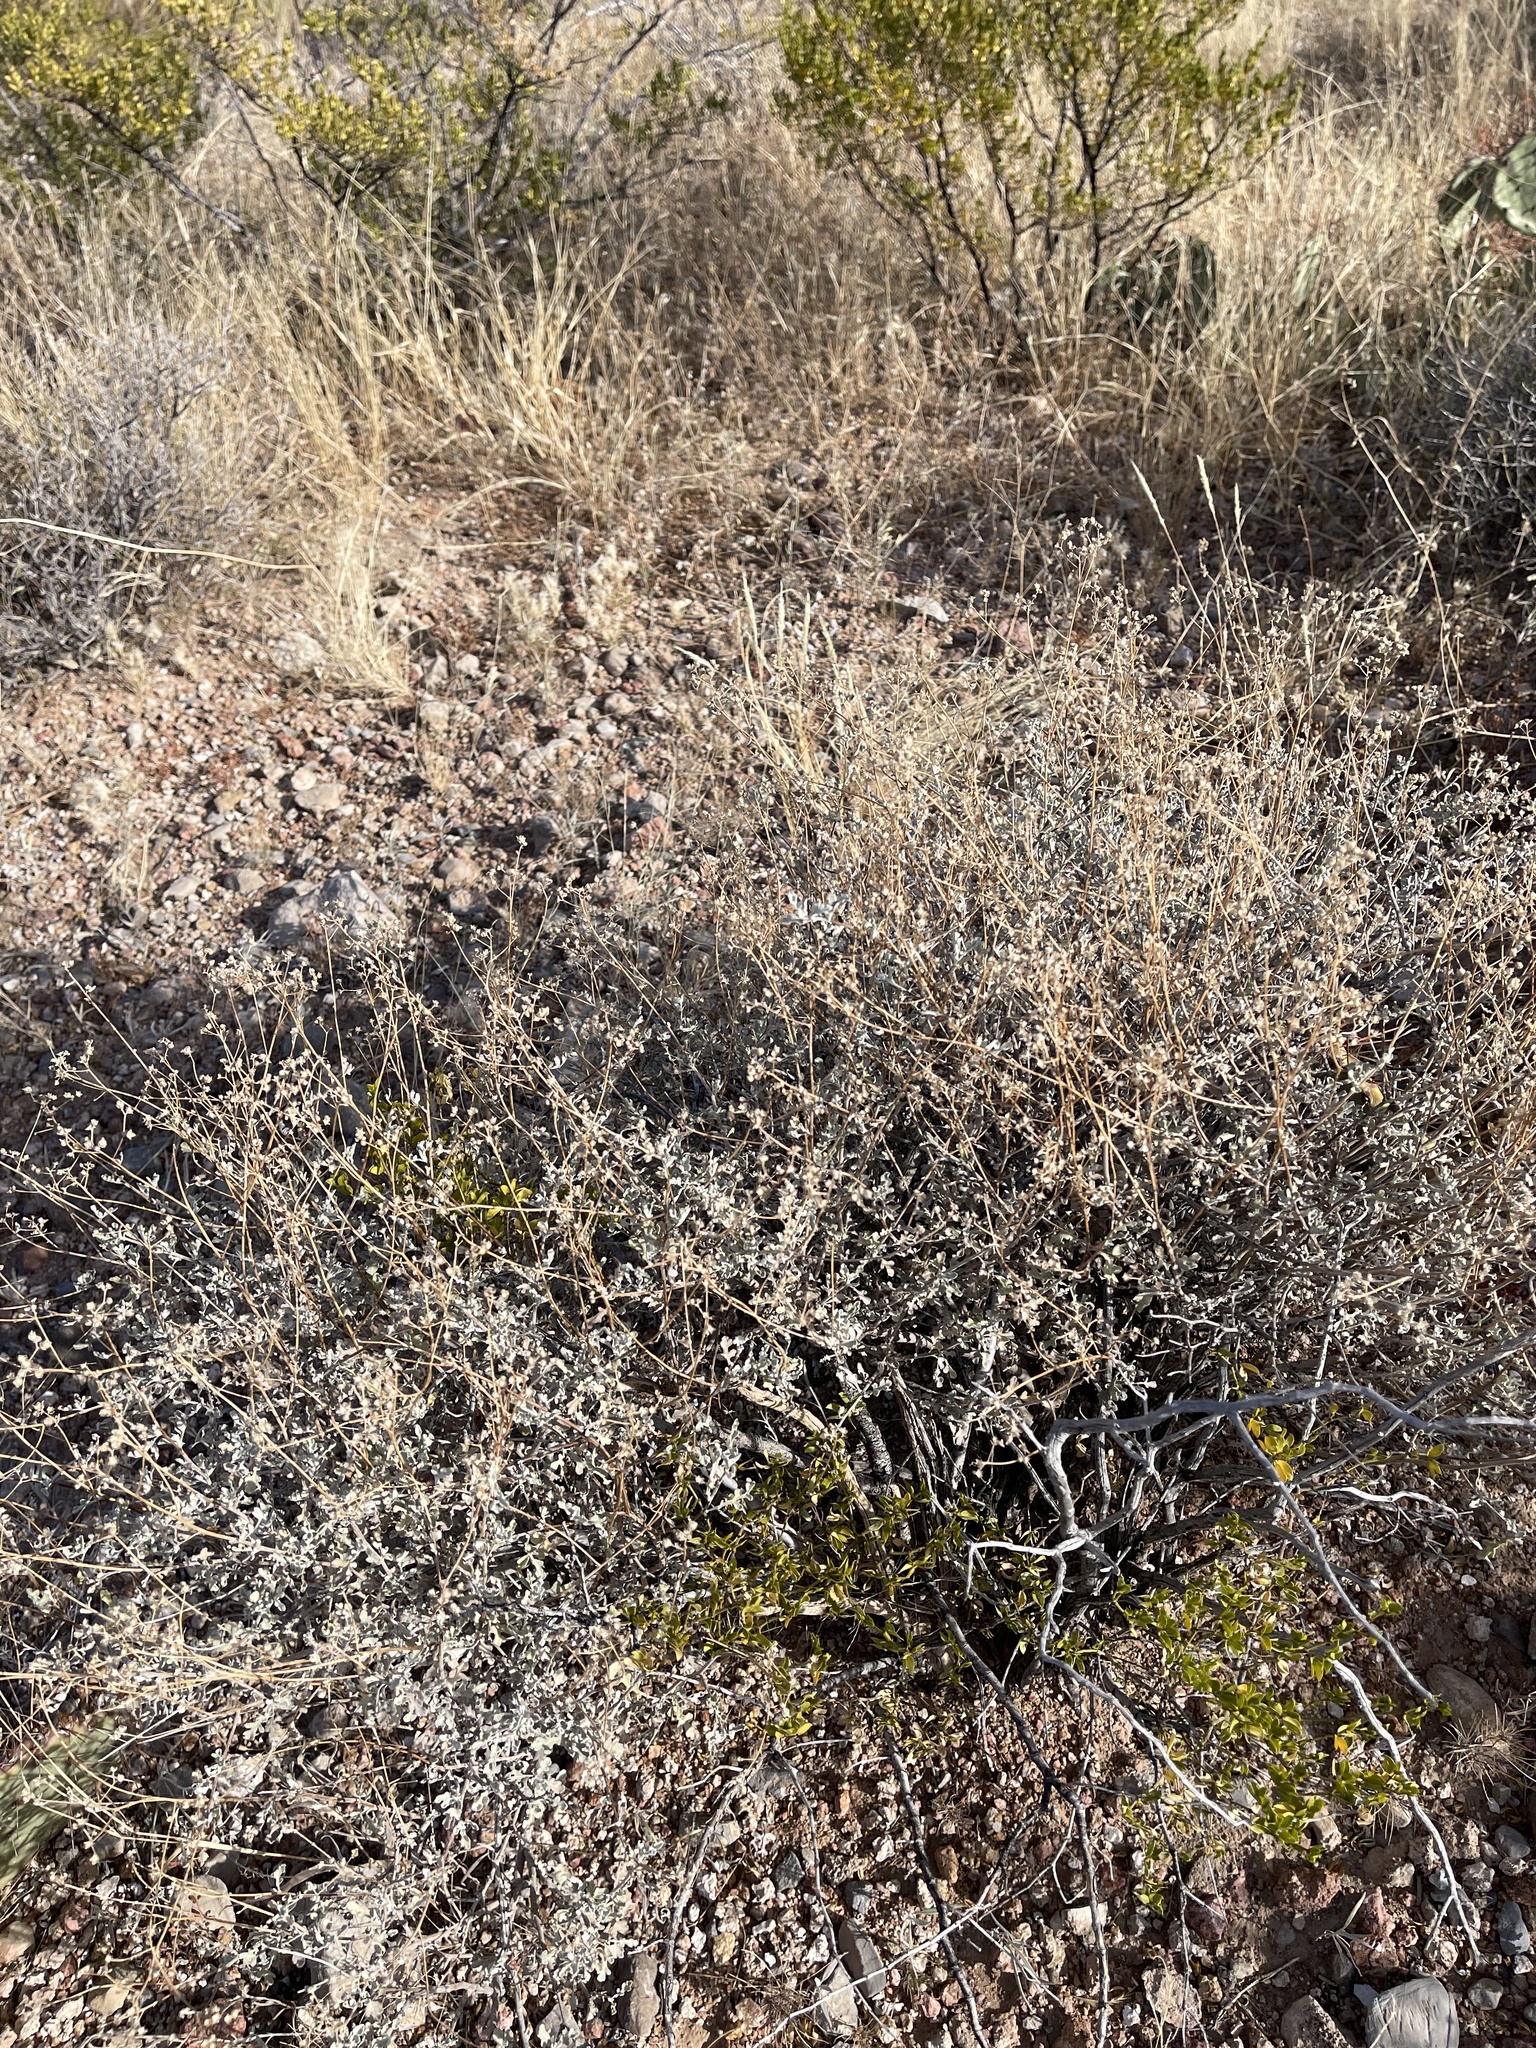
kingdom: Plantae
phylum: Tracheophyta
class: Magnoliopsida
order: Asterales
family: Asteraceae
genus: Parthenium
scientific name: Parthenium incanum
